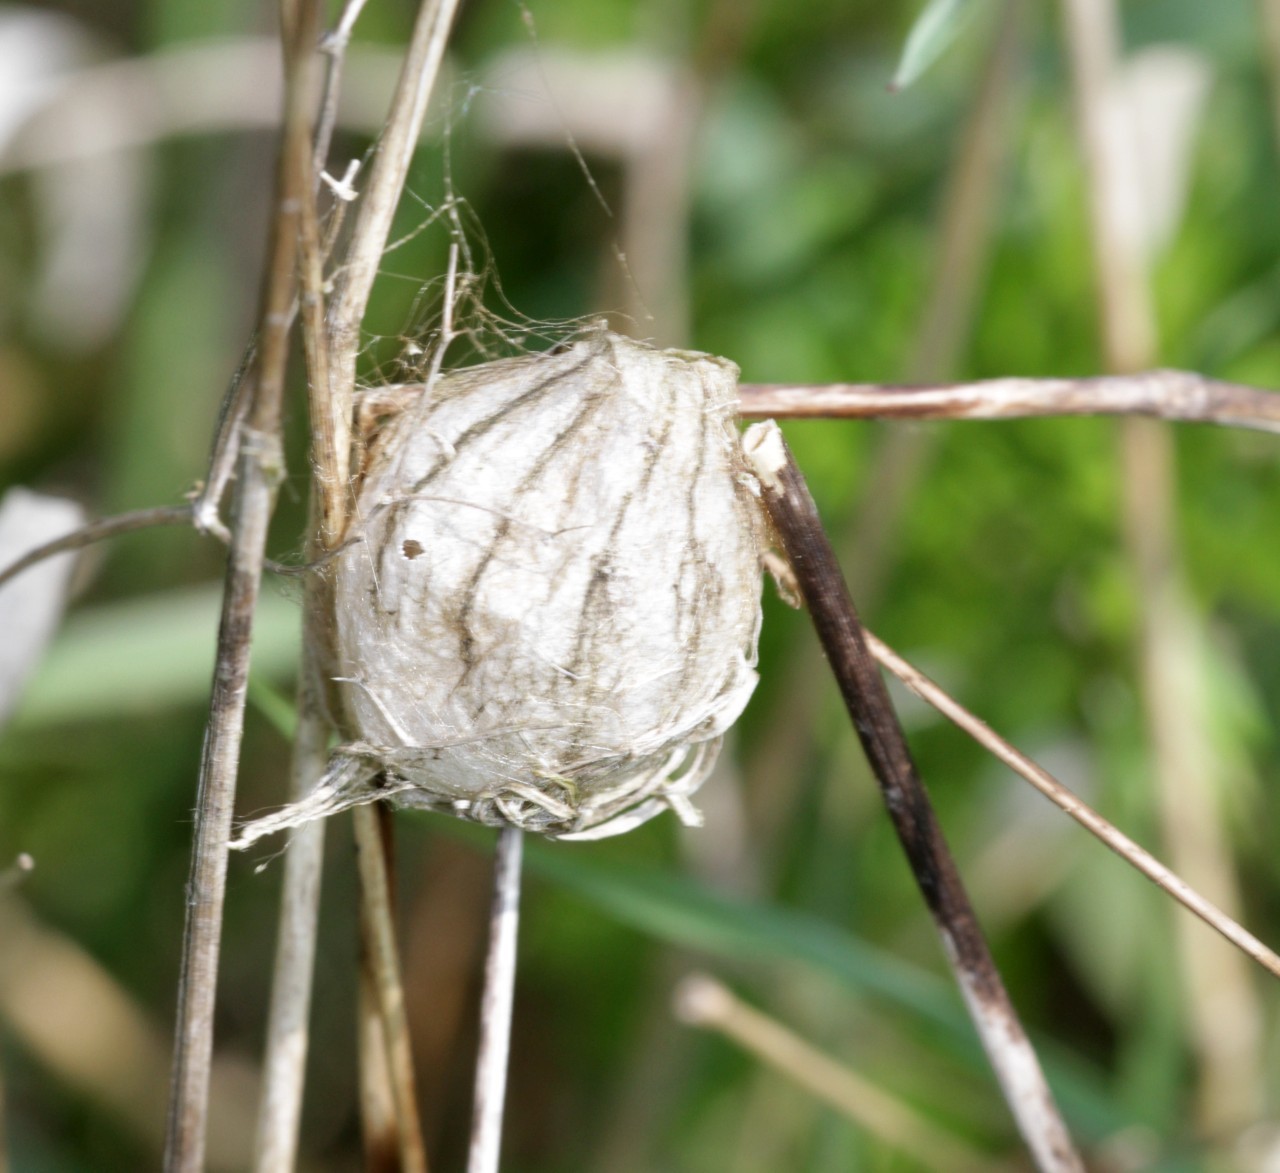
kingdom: Animalia
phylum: Arthropoda
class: Arachnida
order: Araneae
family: Araneidae
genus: Argiope
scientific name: Argiope bruennichi
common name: Wasp spider
